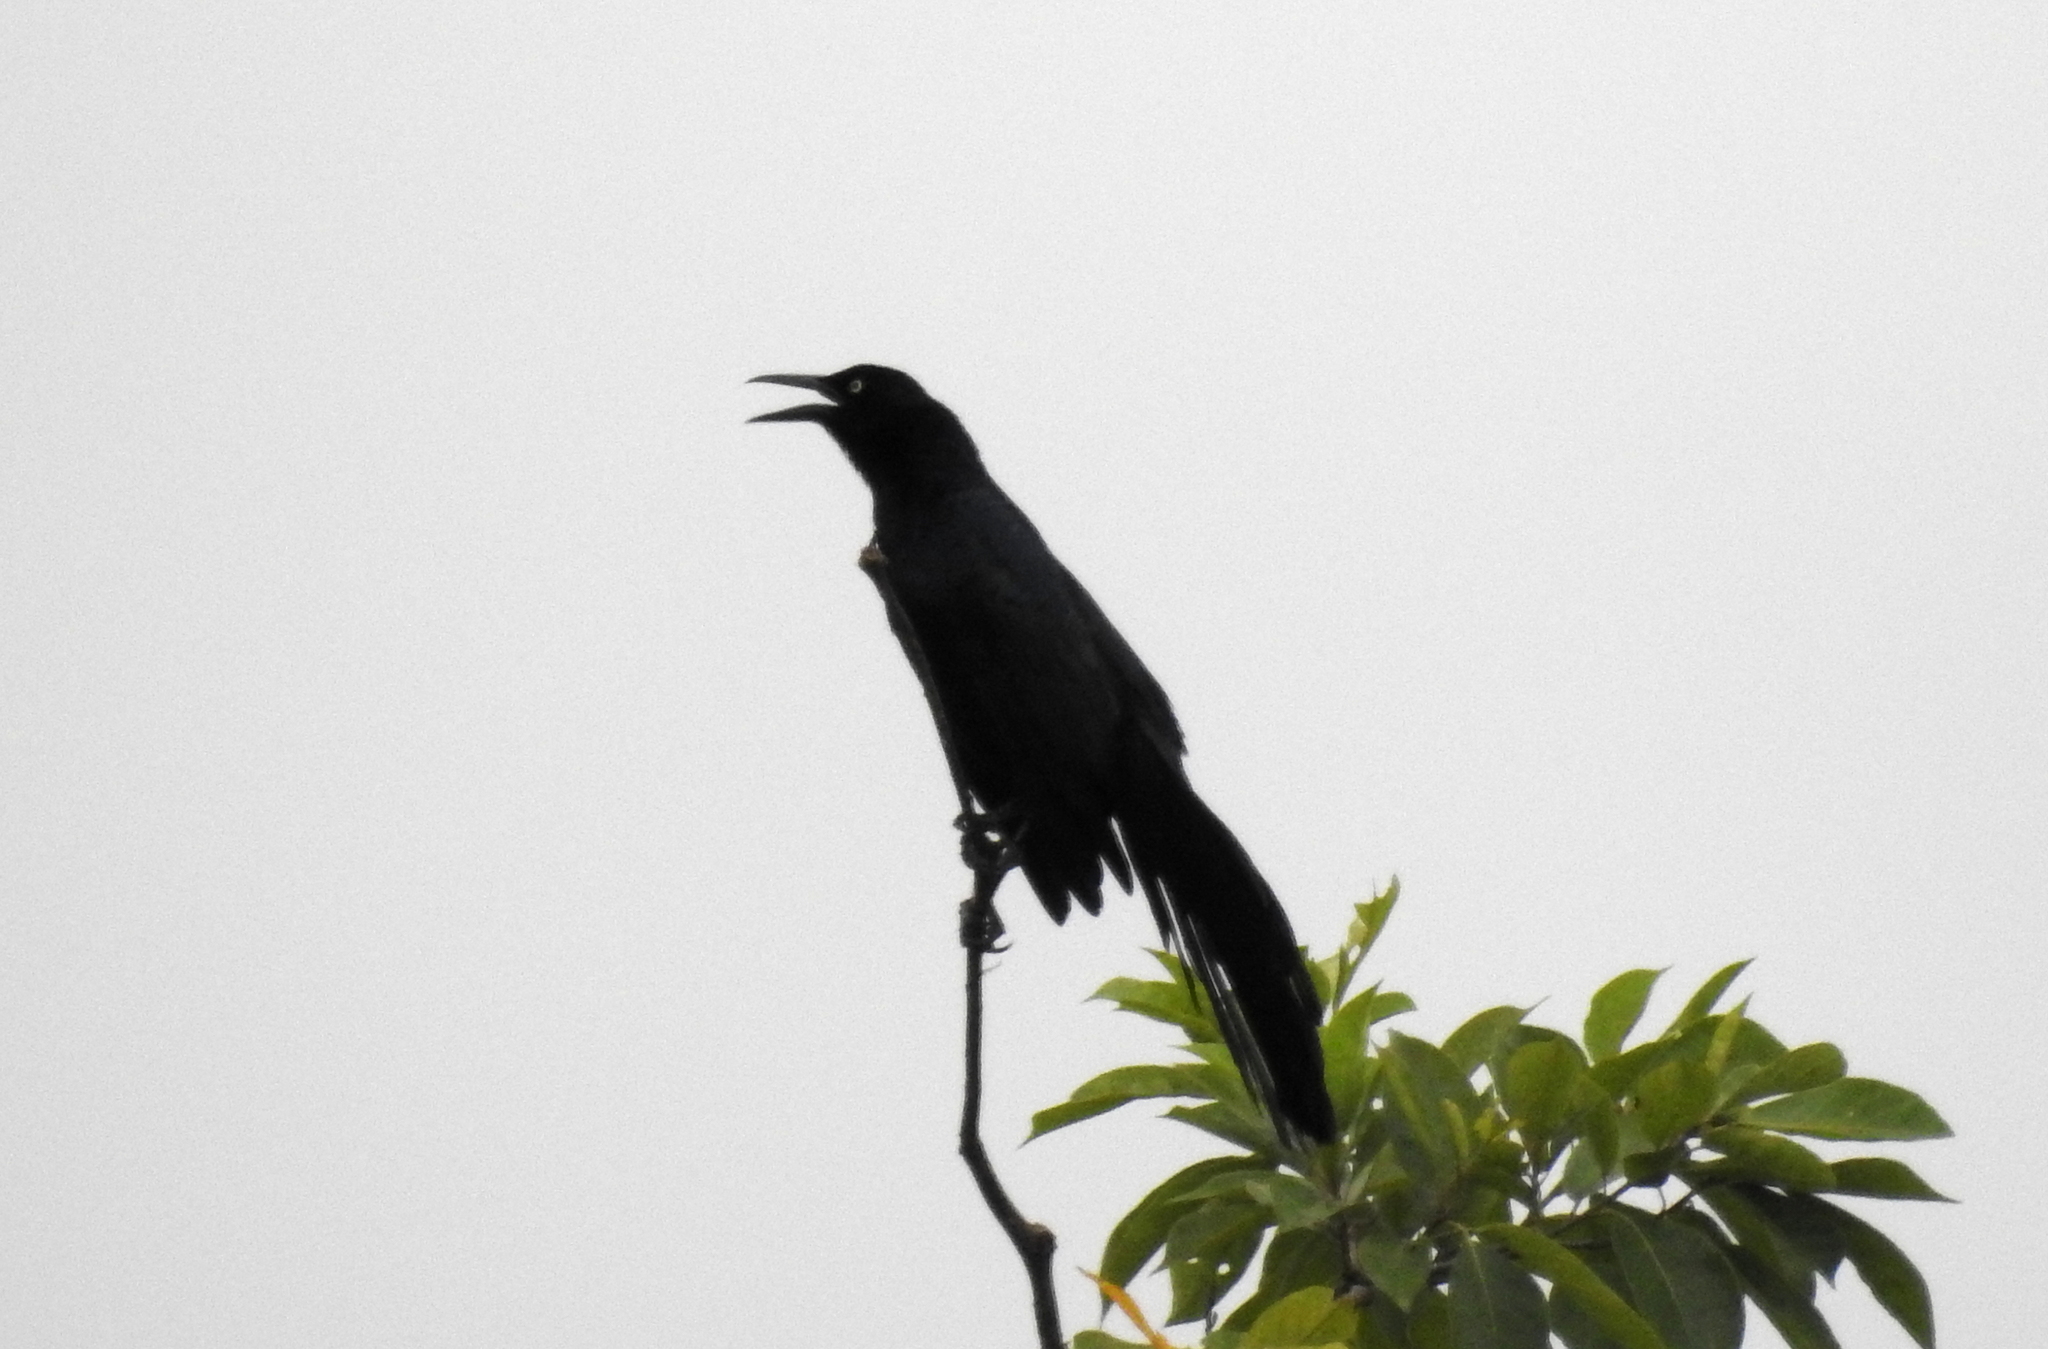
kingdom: Animalia
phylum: Chordata
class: Aves
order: Passeriformes
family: Icteridae
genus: Quiscalus
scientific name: Quiscalus mexicanus
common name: Great-tailed grackle
